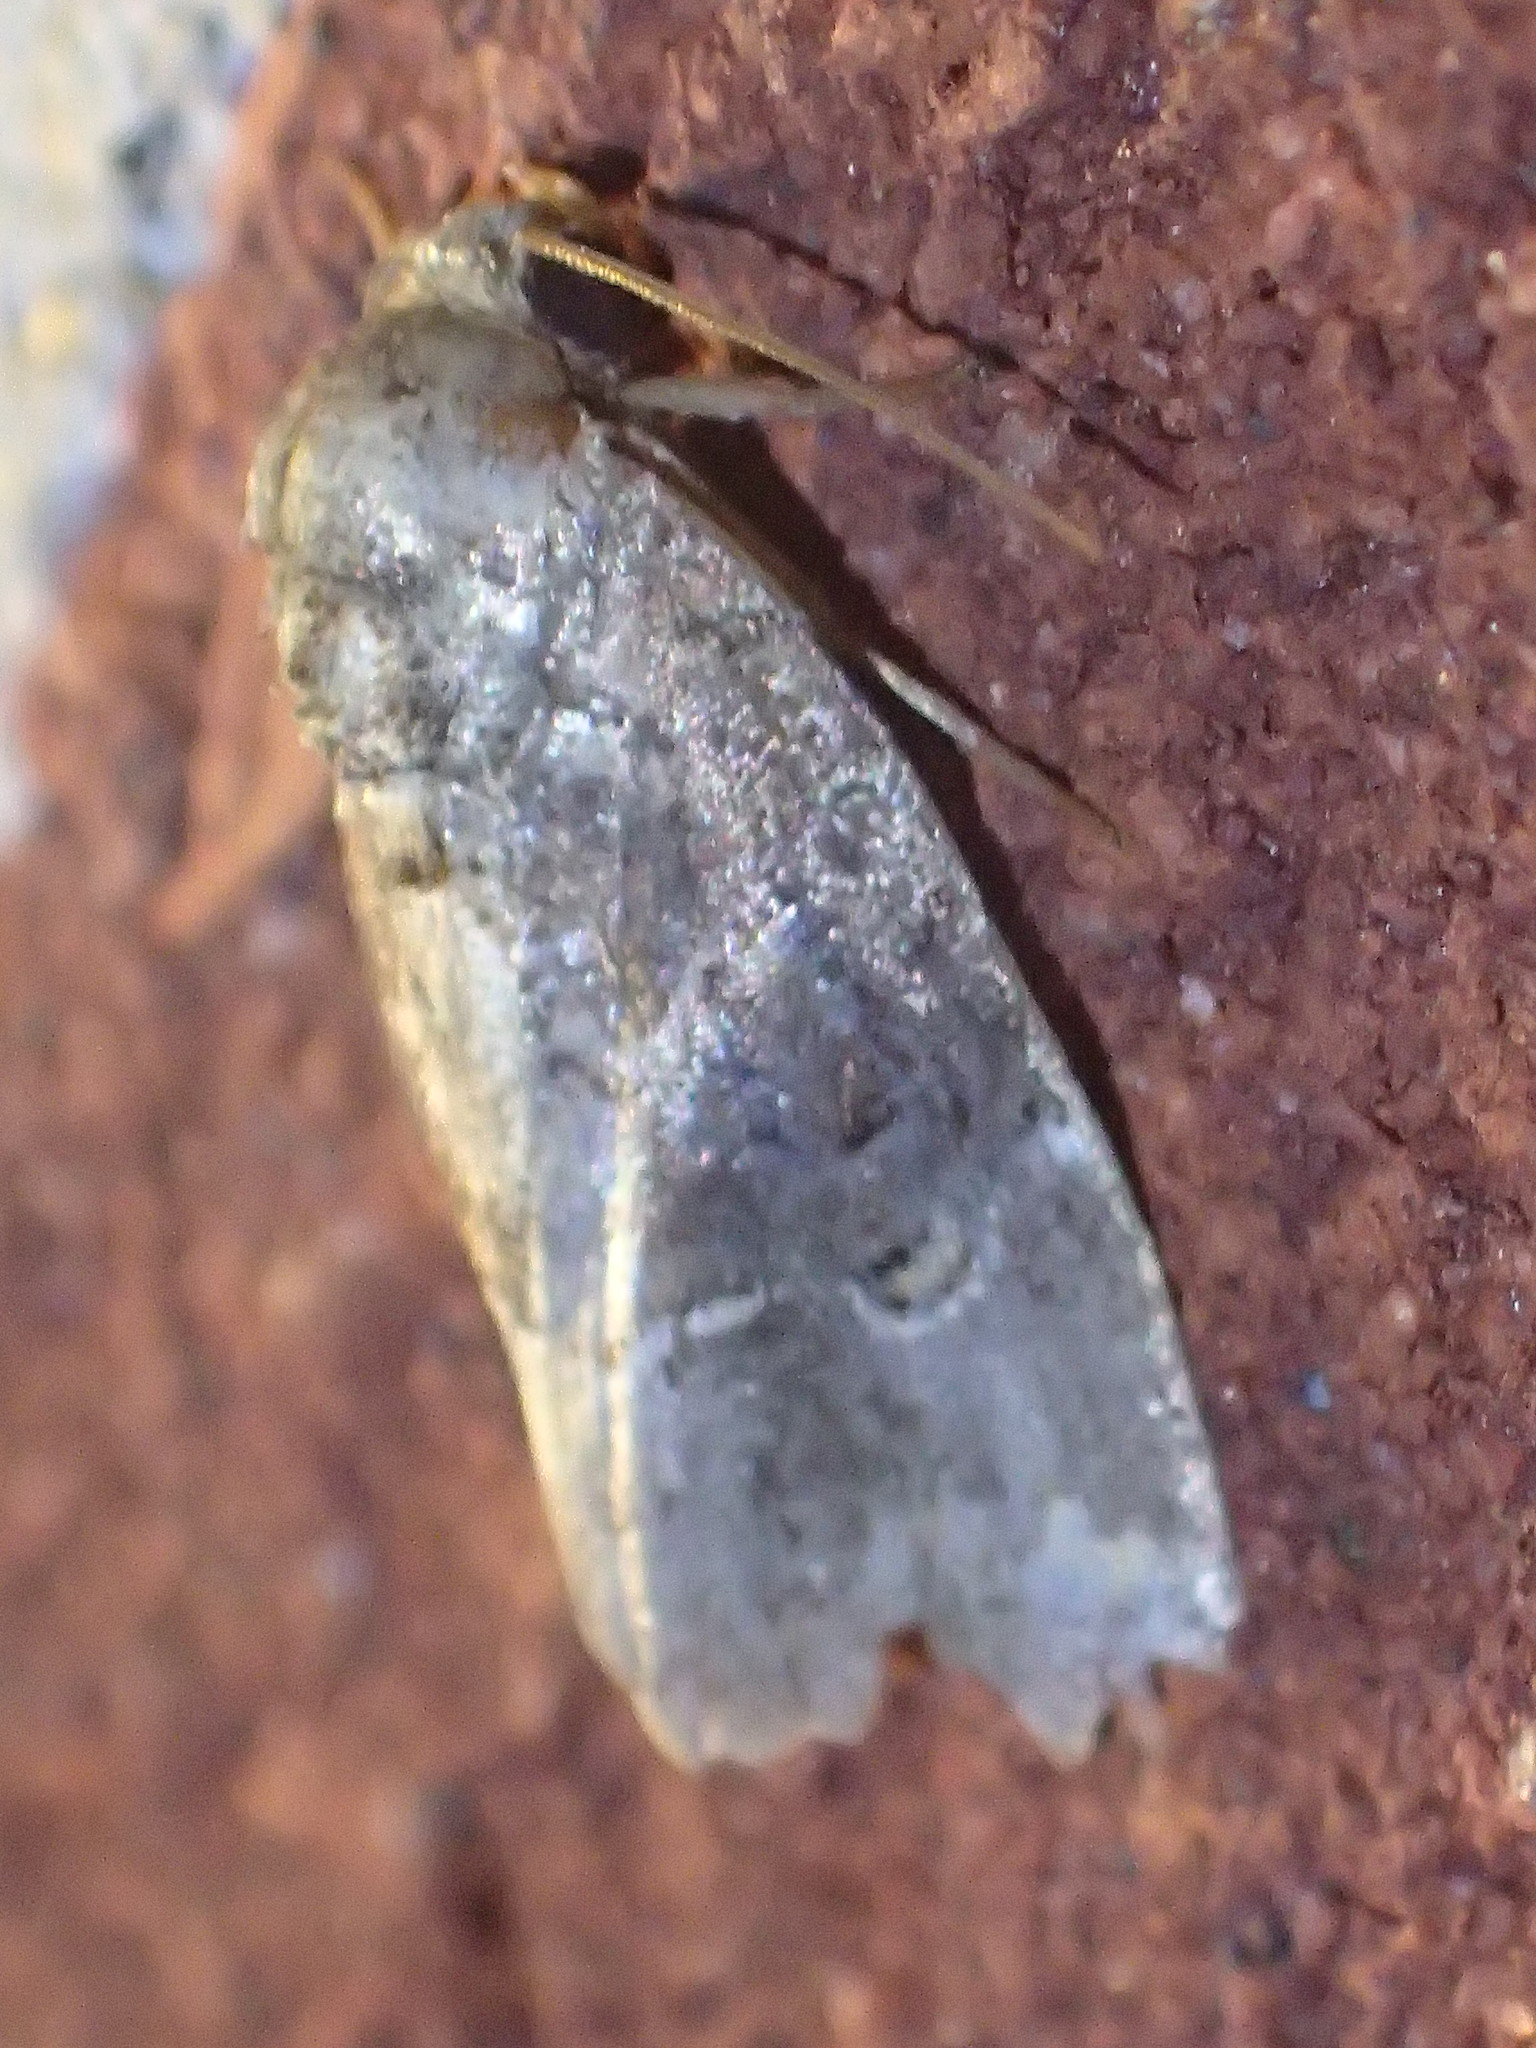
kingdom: Animalia
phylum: Arthropoda
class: Insecta
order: Lepidoptera
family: Noctuidae
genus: Elaphria
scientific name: Elaphria versicolor
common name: Fir harlequin
